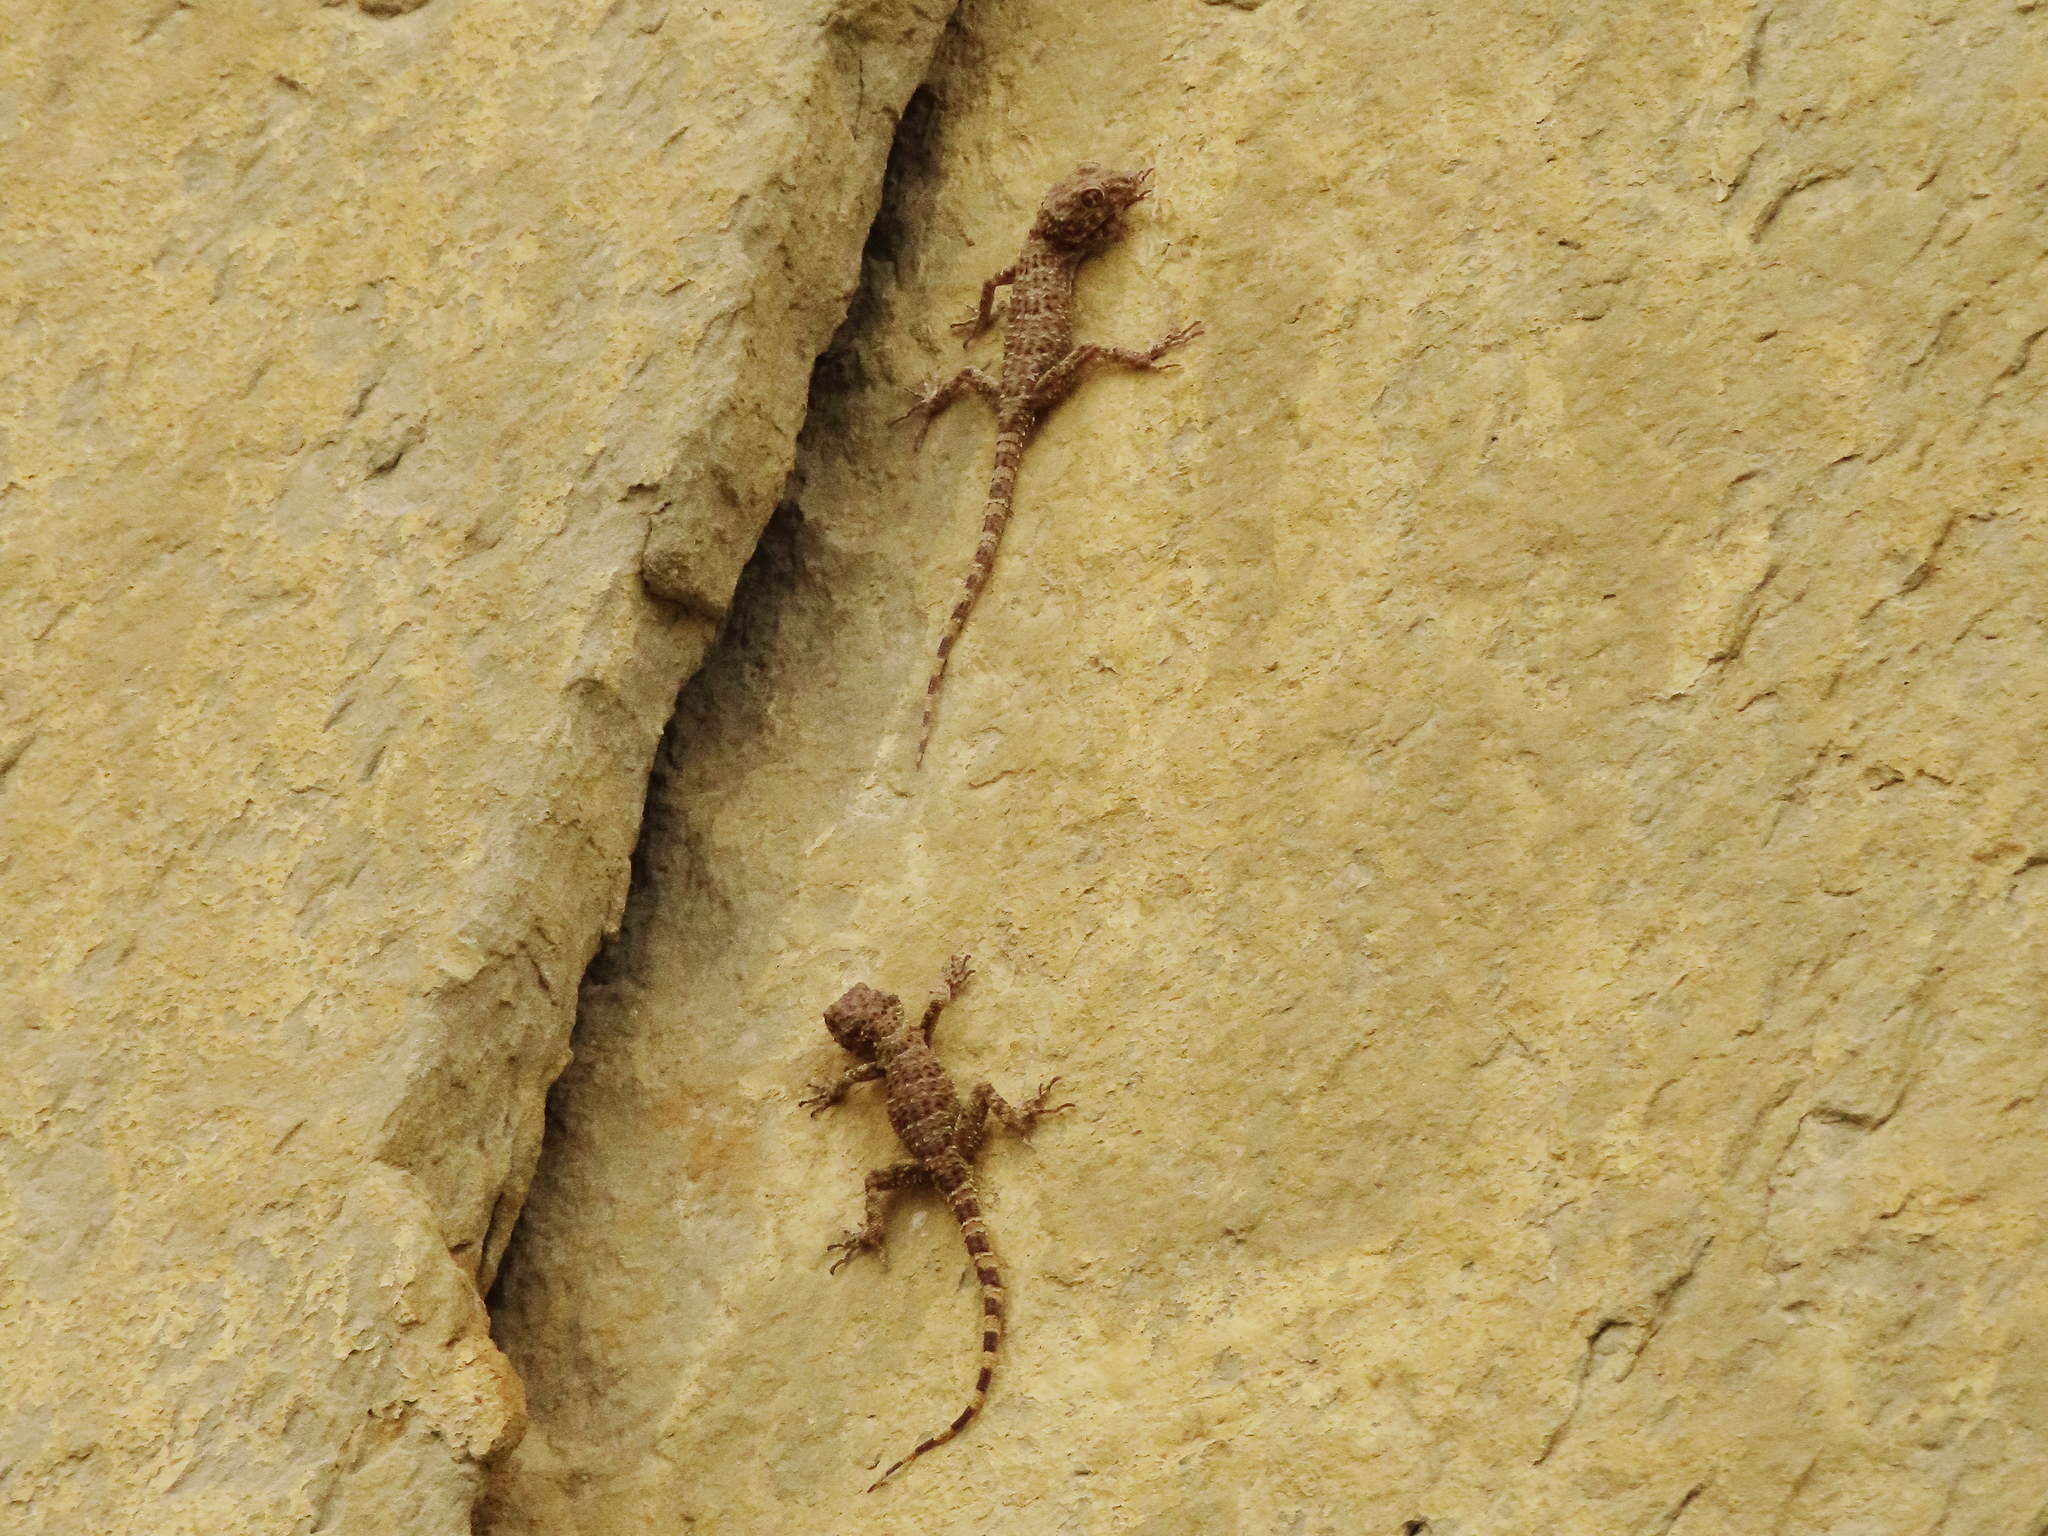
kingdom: Animalia
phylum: Chordata
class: Squamata
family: Gekkonidae
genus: Tenuidactylus
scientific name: Tenuidactylus caspius
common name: Caspian bent-toed gecko
